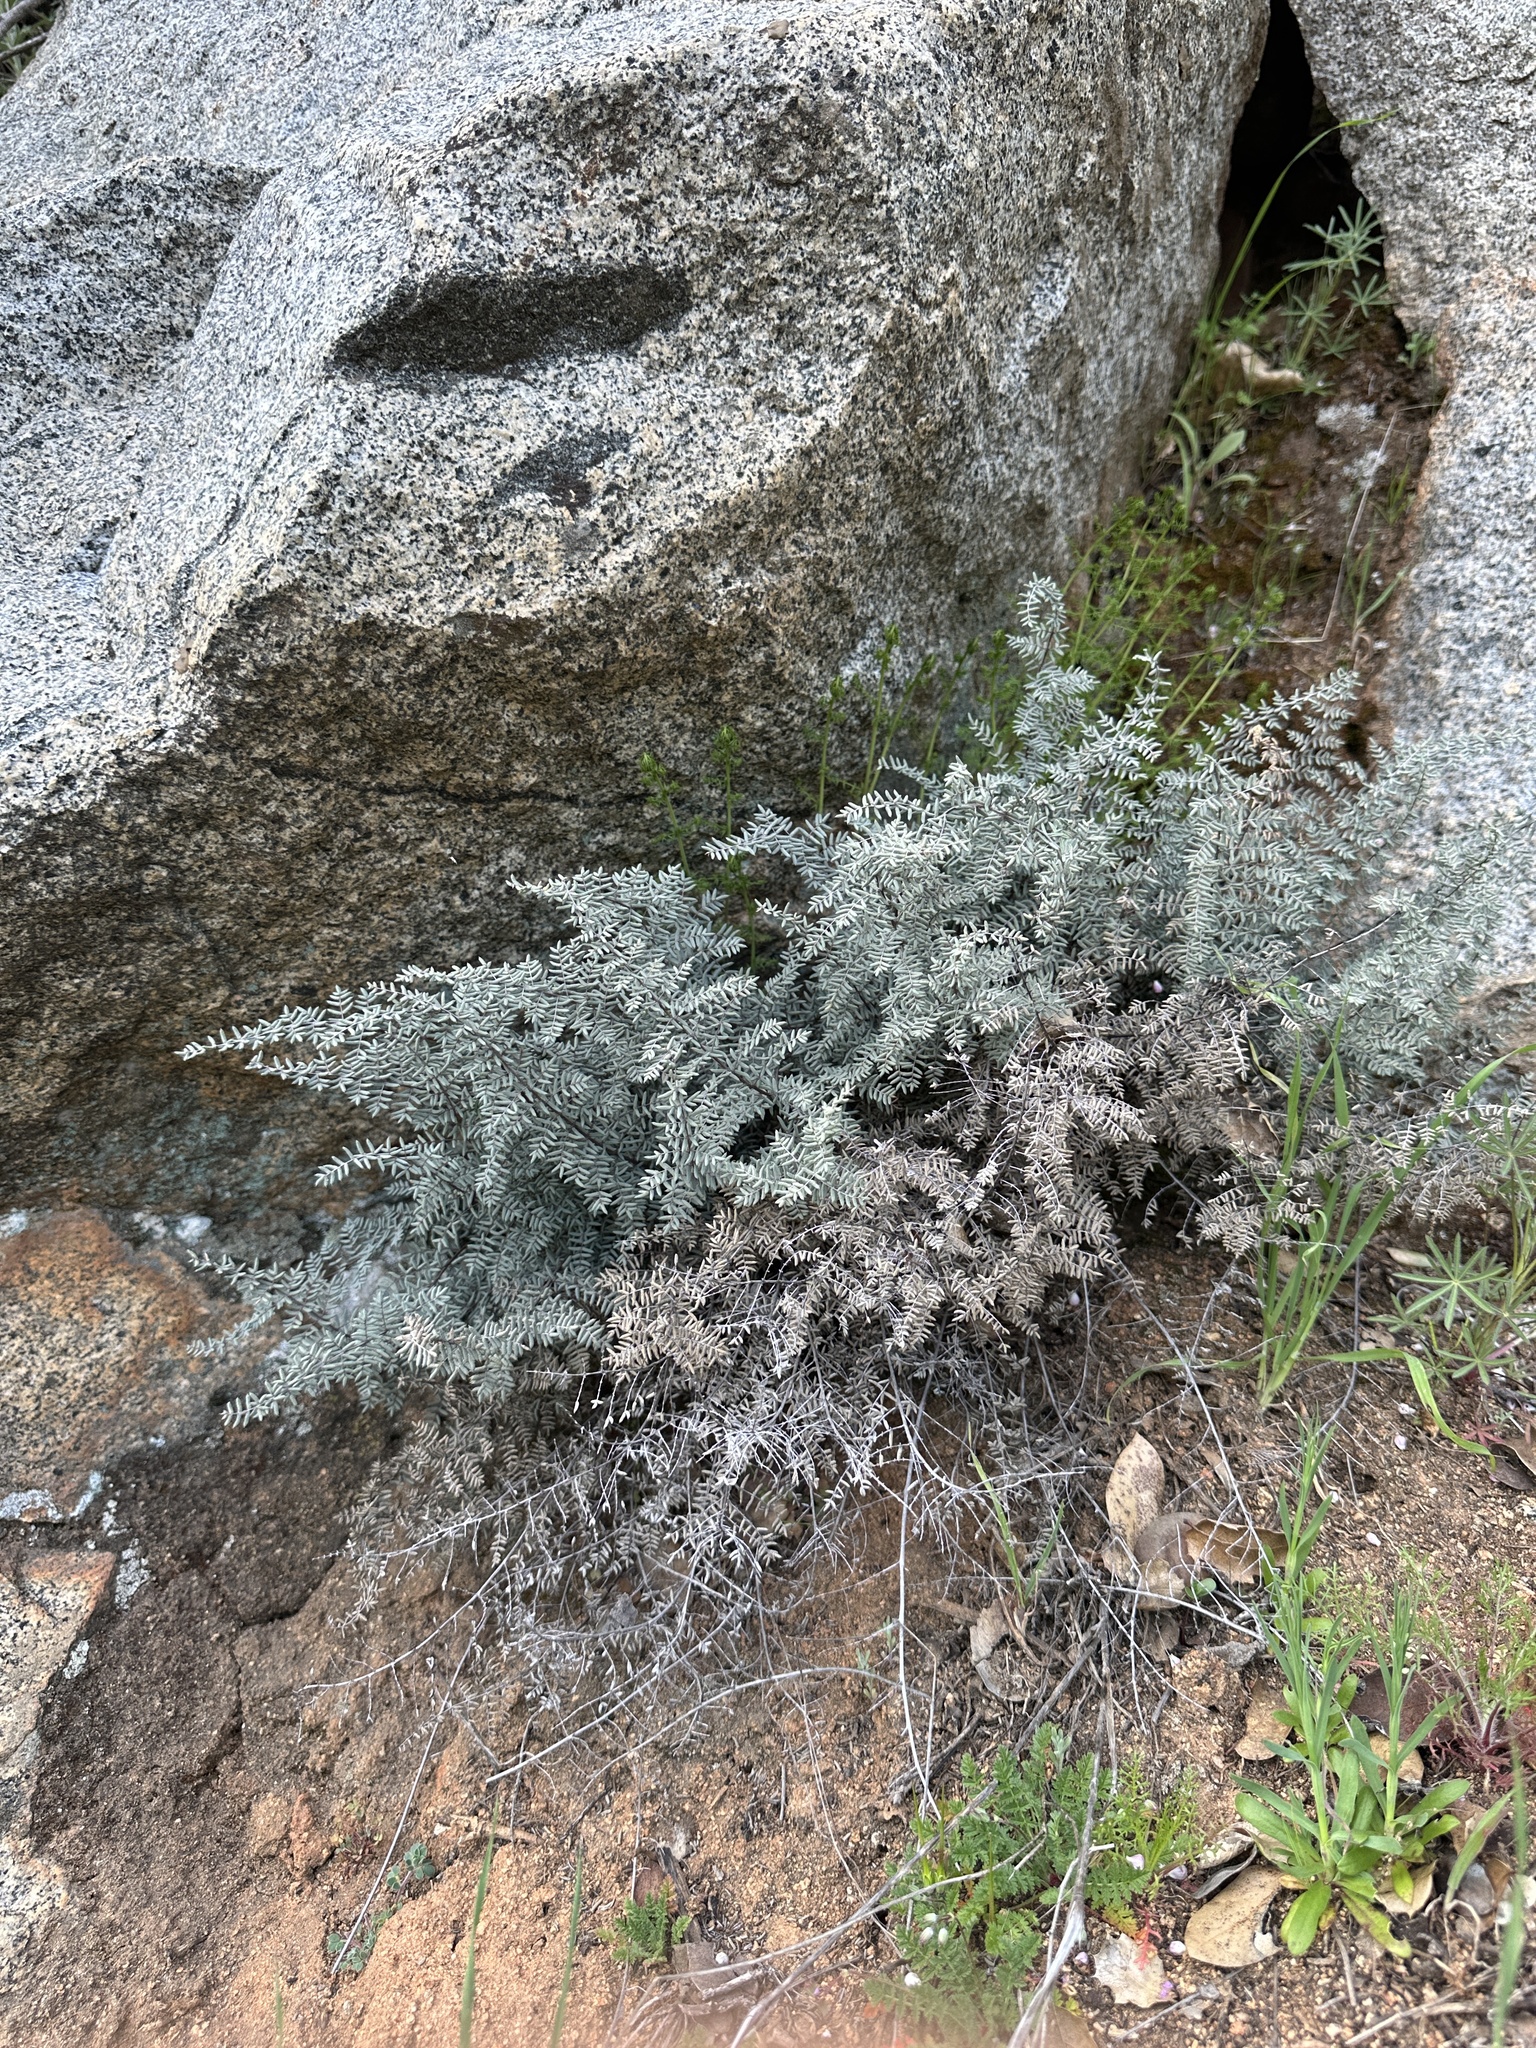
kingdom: Plantae
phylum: Tracheophyta
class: Polypodiopsida
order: Polypodiales
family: Pteridaceae
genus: Pellaea
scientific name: Pellaea mucronata
